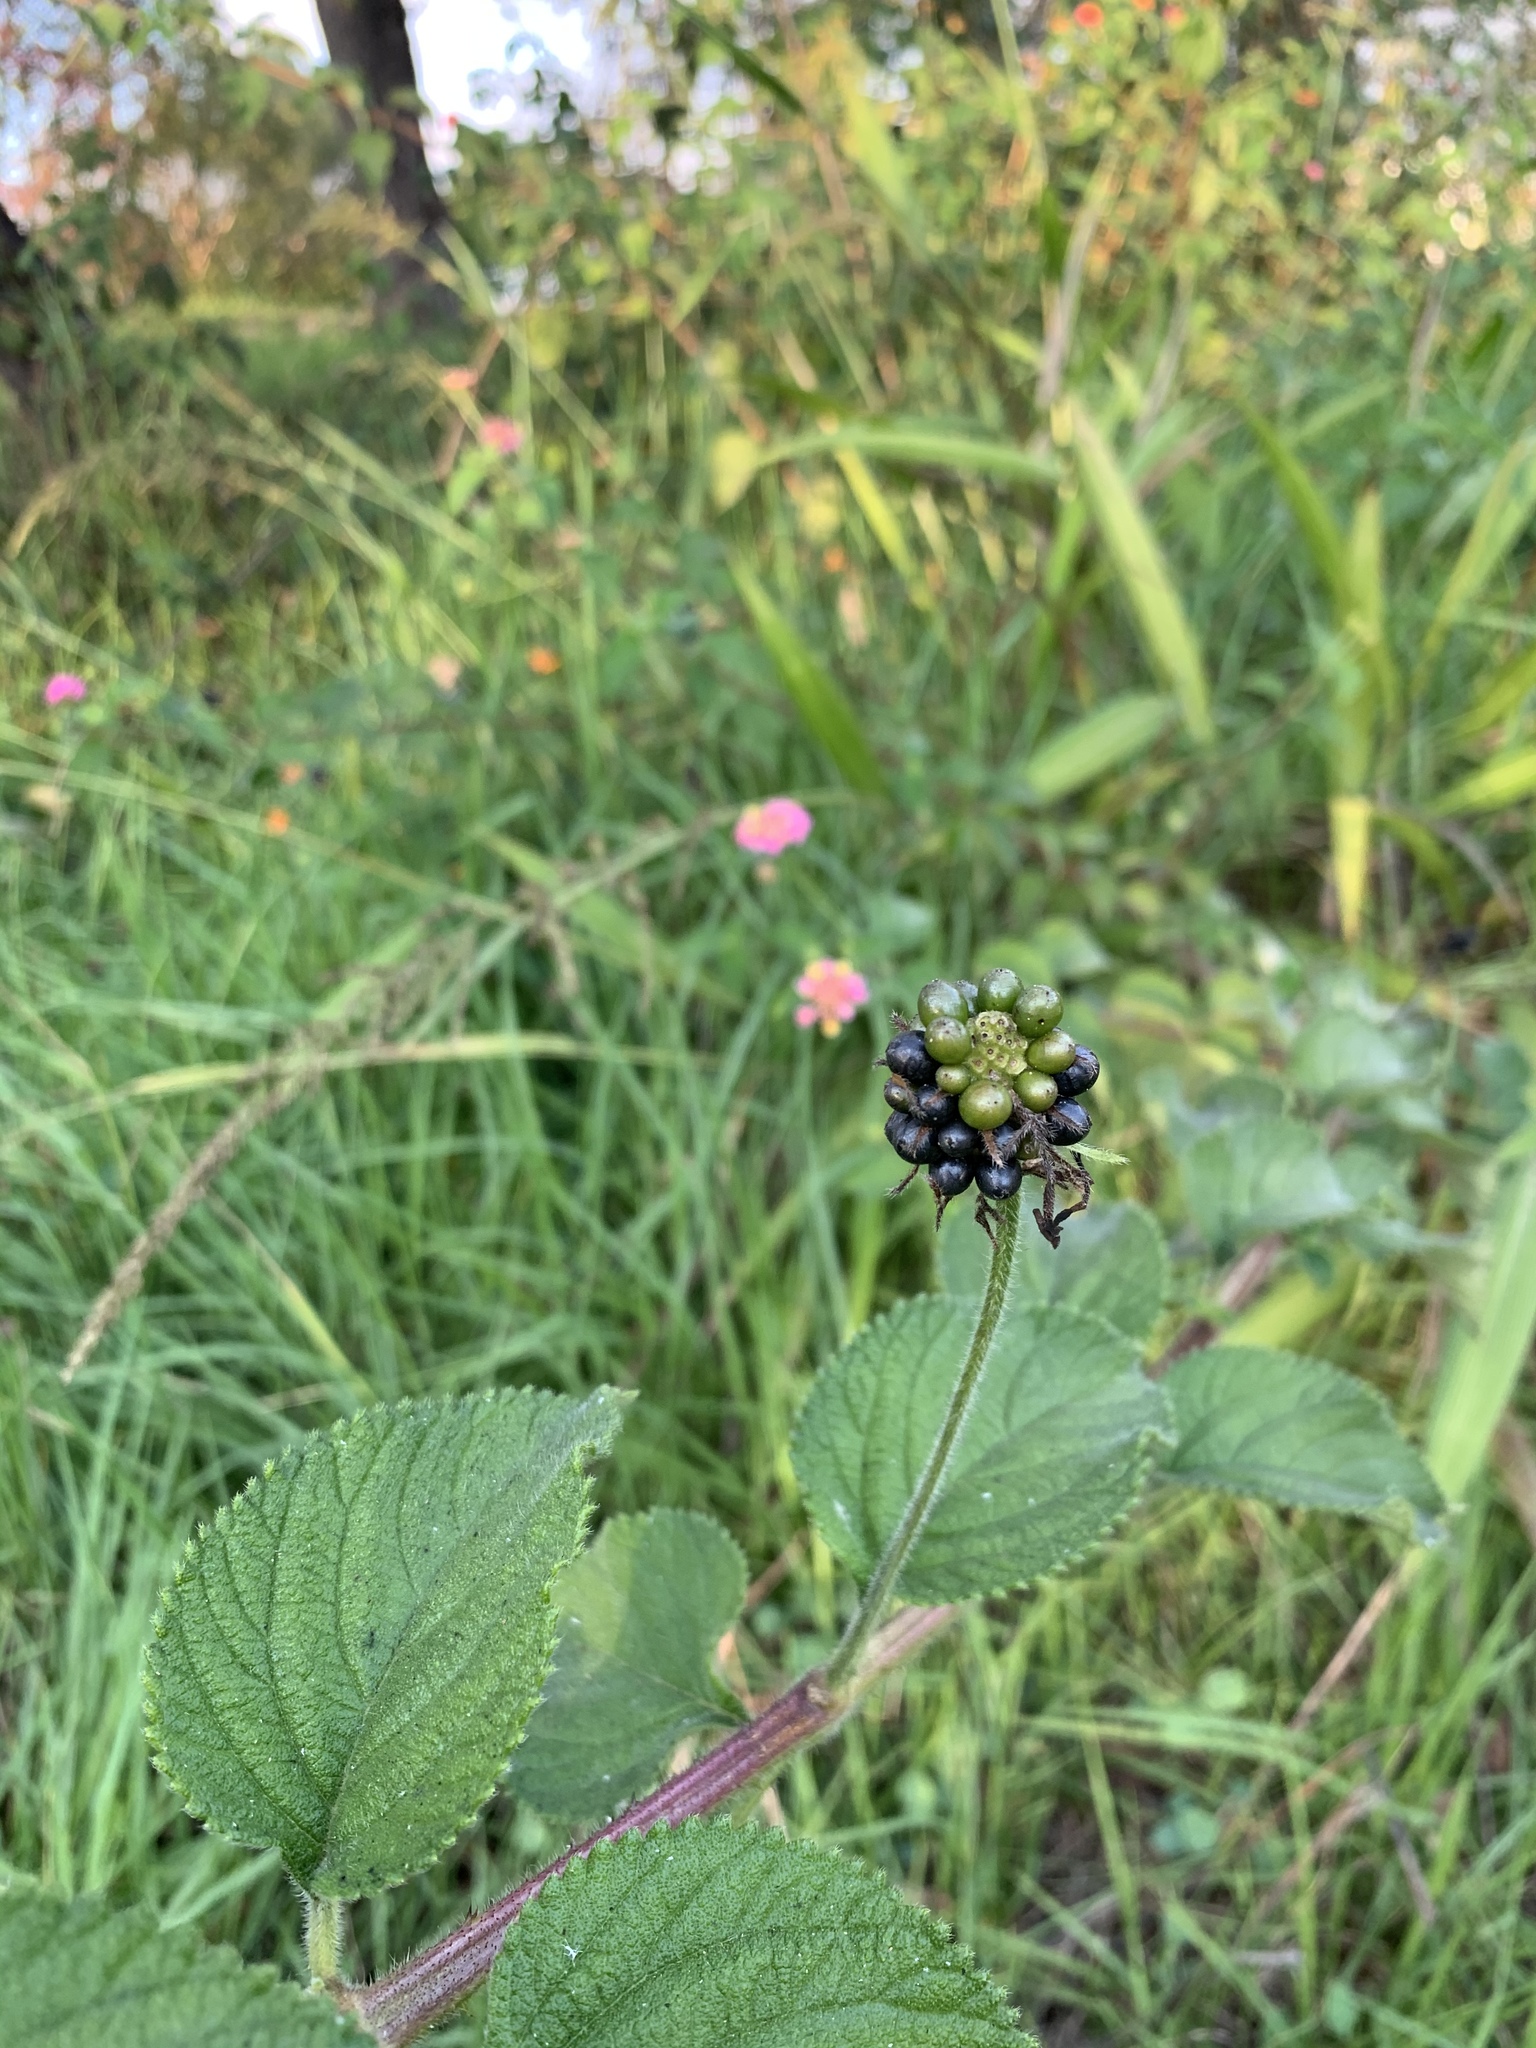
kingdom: Plantae
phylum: Tracheophyta
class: Magnoliopsida
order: Lamiales
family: Verbenaceae
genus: Lantana
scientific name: Lantana camara
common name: Lantana
